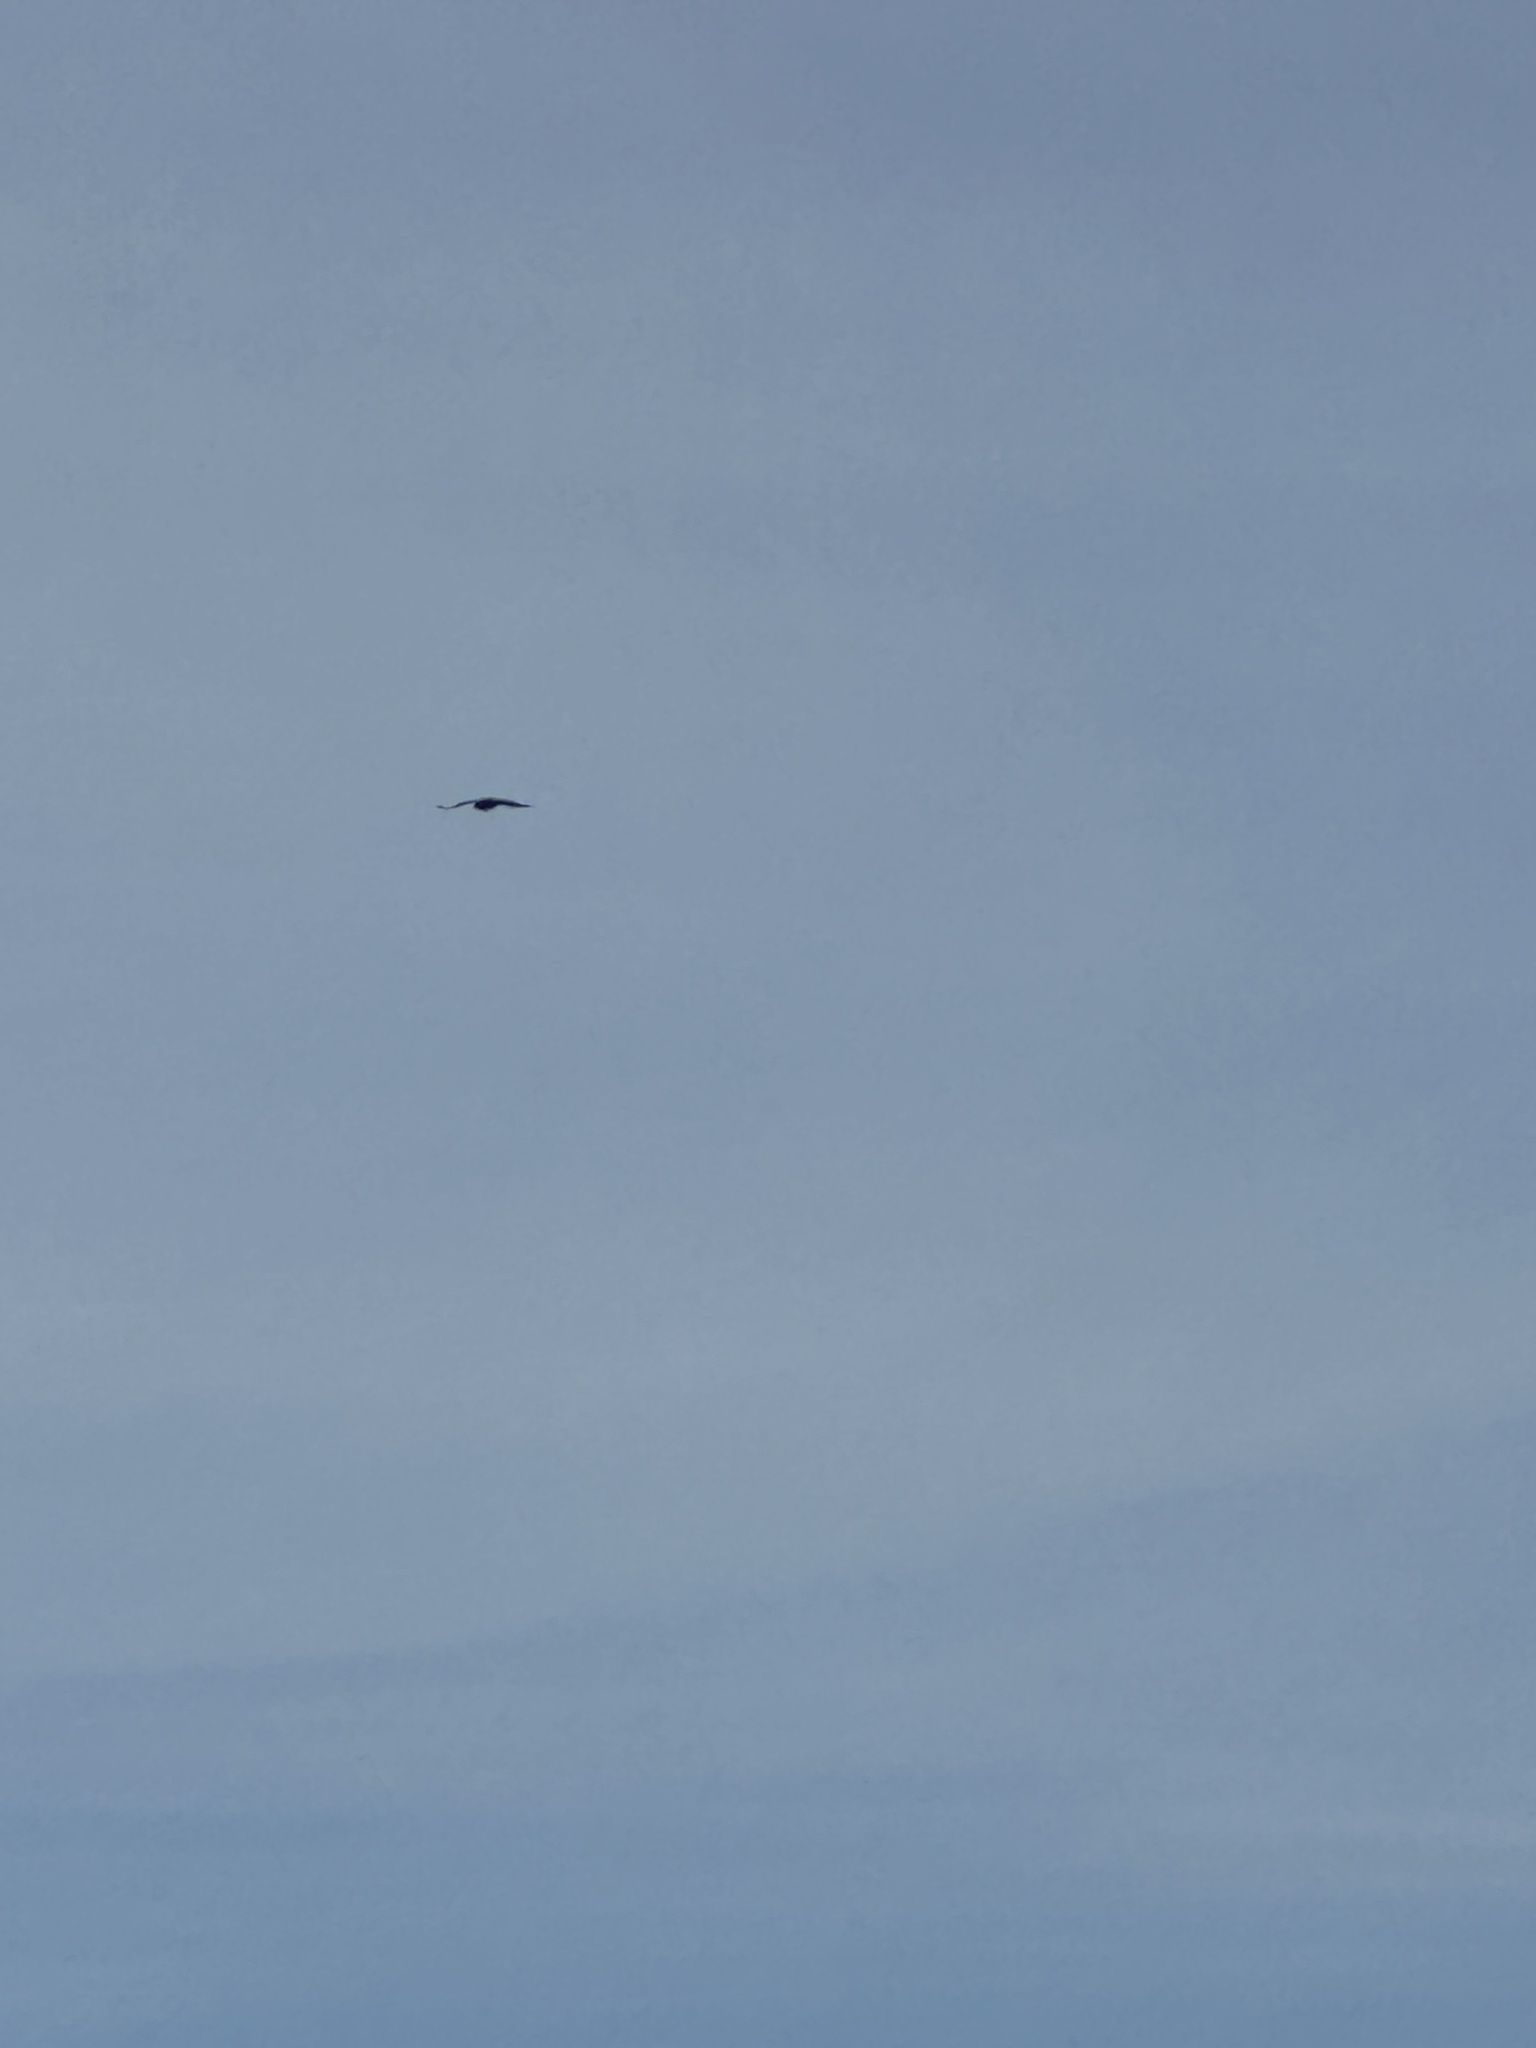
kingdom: Animalia
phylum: Chordata
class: Aves
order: Passeriformes
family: Corvidae
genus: Corvus
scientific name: Corvus corax
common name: Common raven
